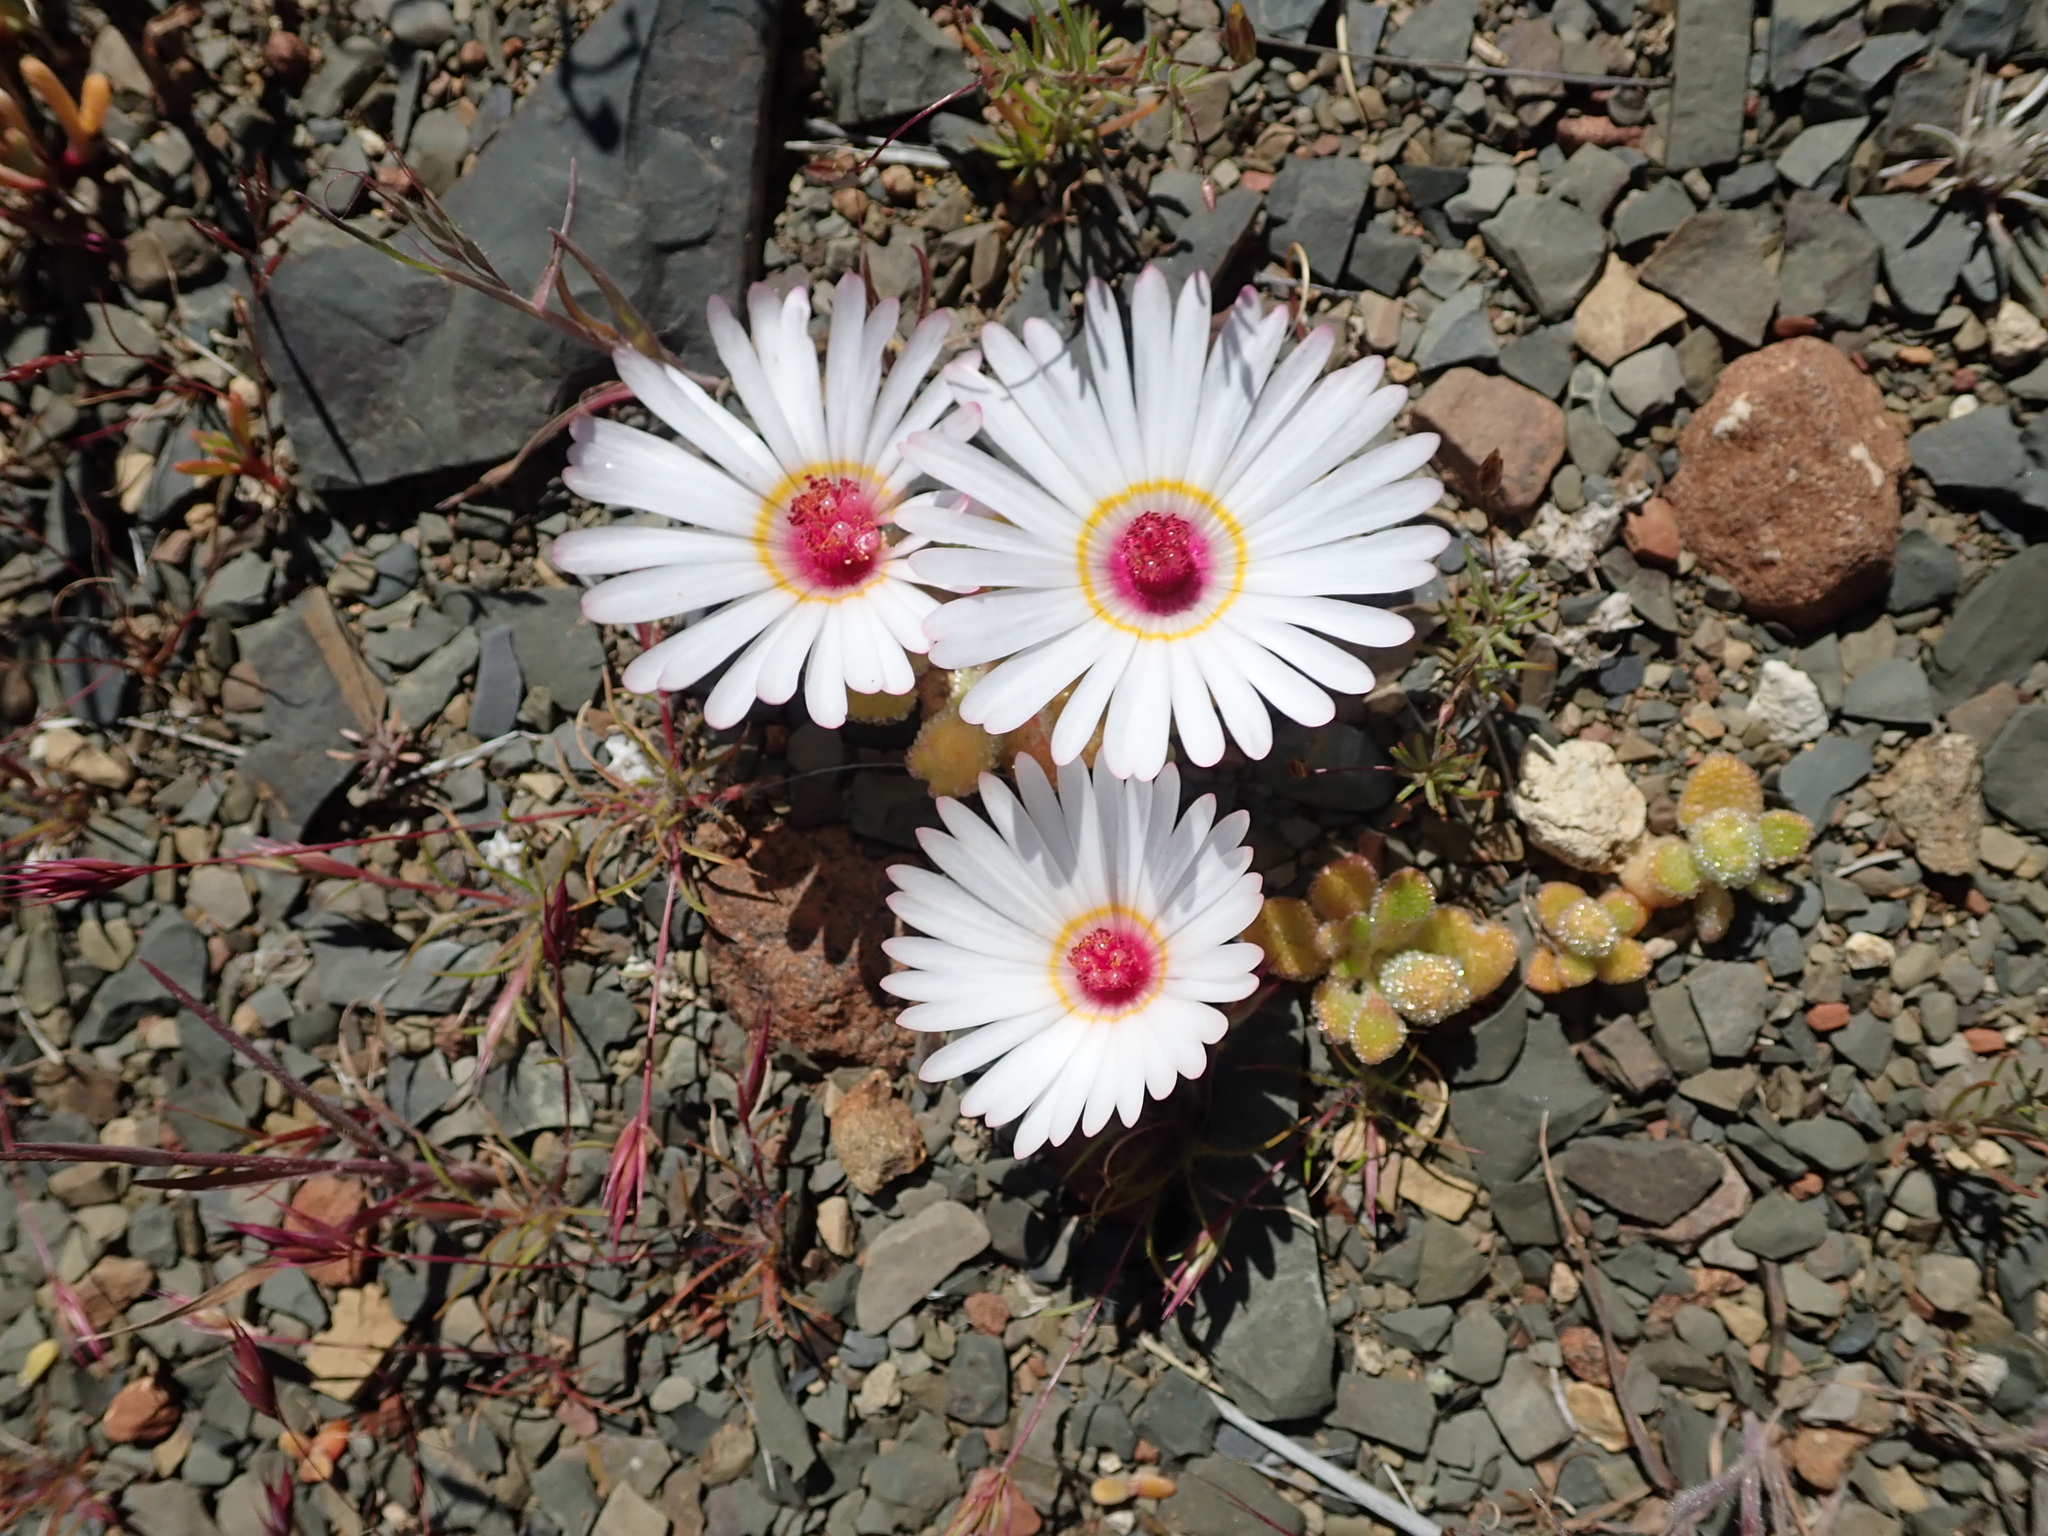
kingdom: Plantae
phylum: Tracheophyta
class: Magnoliopsida
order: Caryophyllales
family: Aizoaceae
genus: Cleretum
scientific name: Cleretum maughanii
